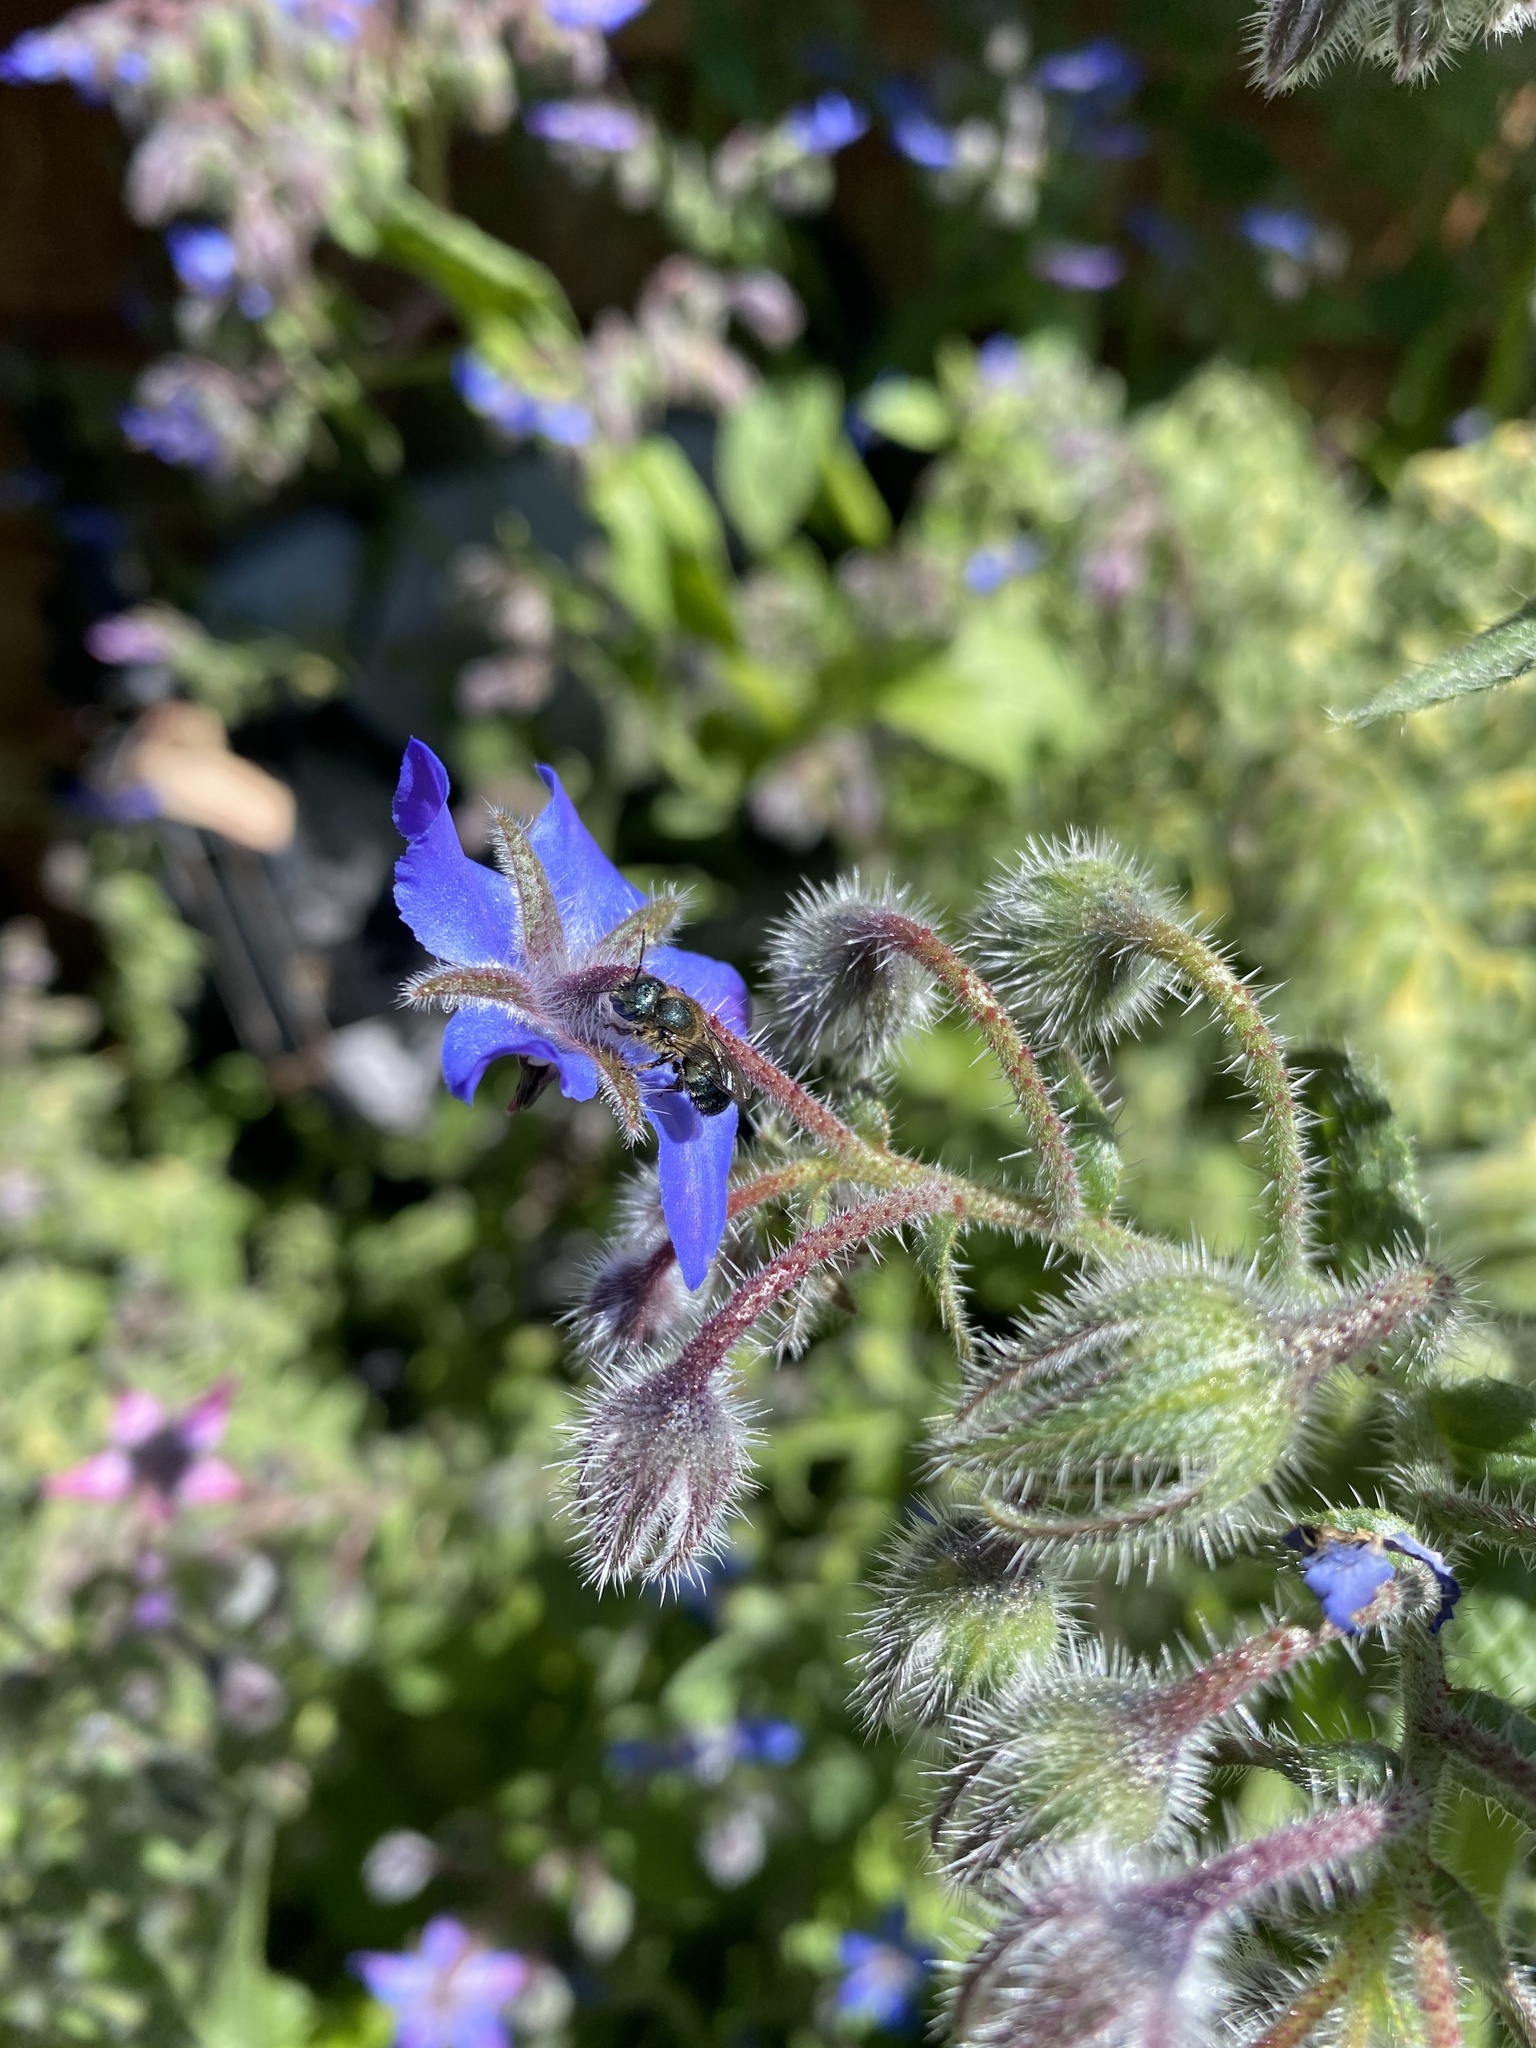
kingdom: Plantae
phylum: Tracheophyta
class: Magnoliopsida
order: Boraginales
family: Boraginaceae
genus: Borago
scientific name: Borago officinalis
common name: Borage
